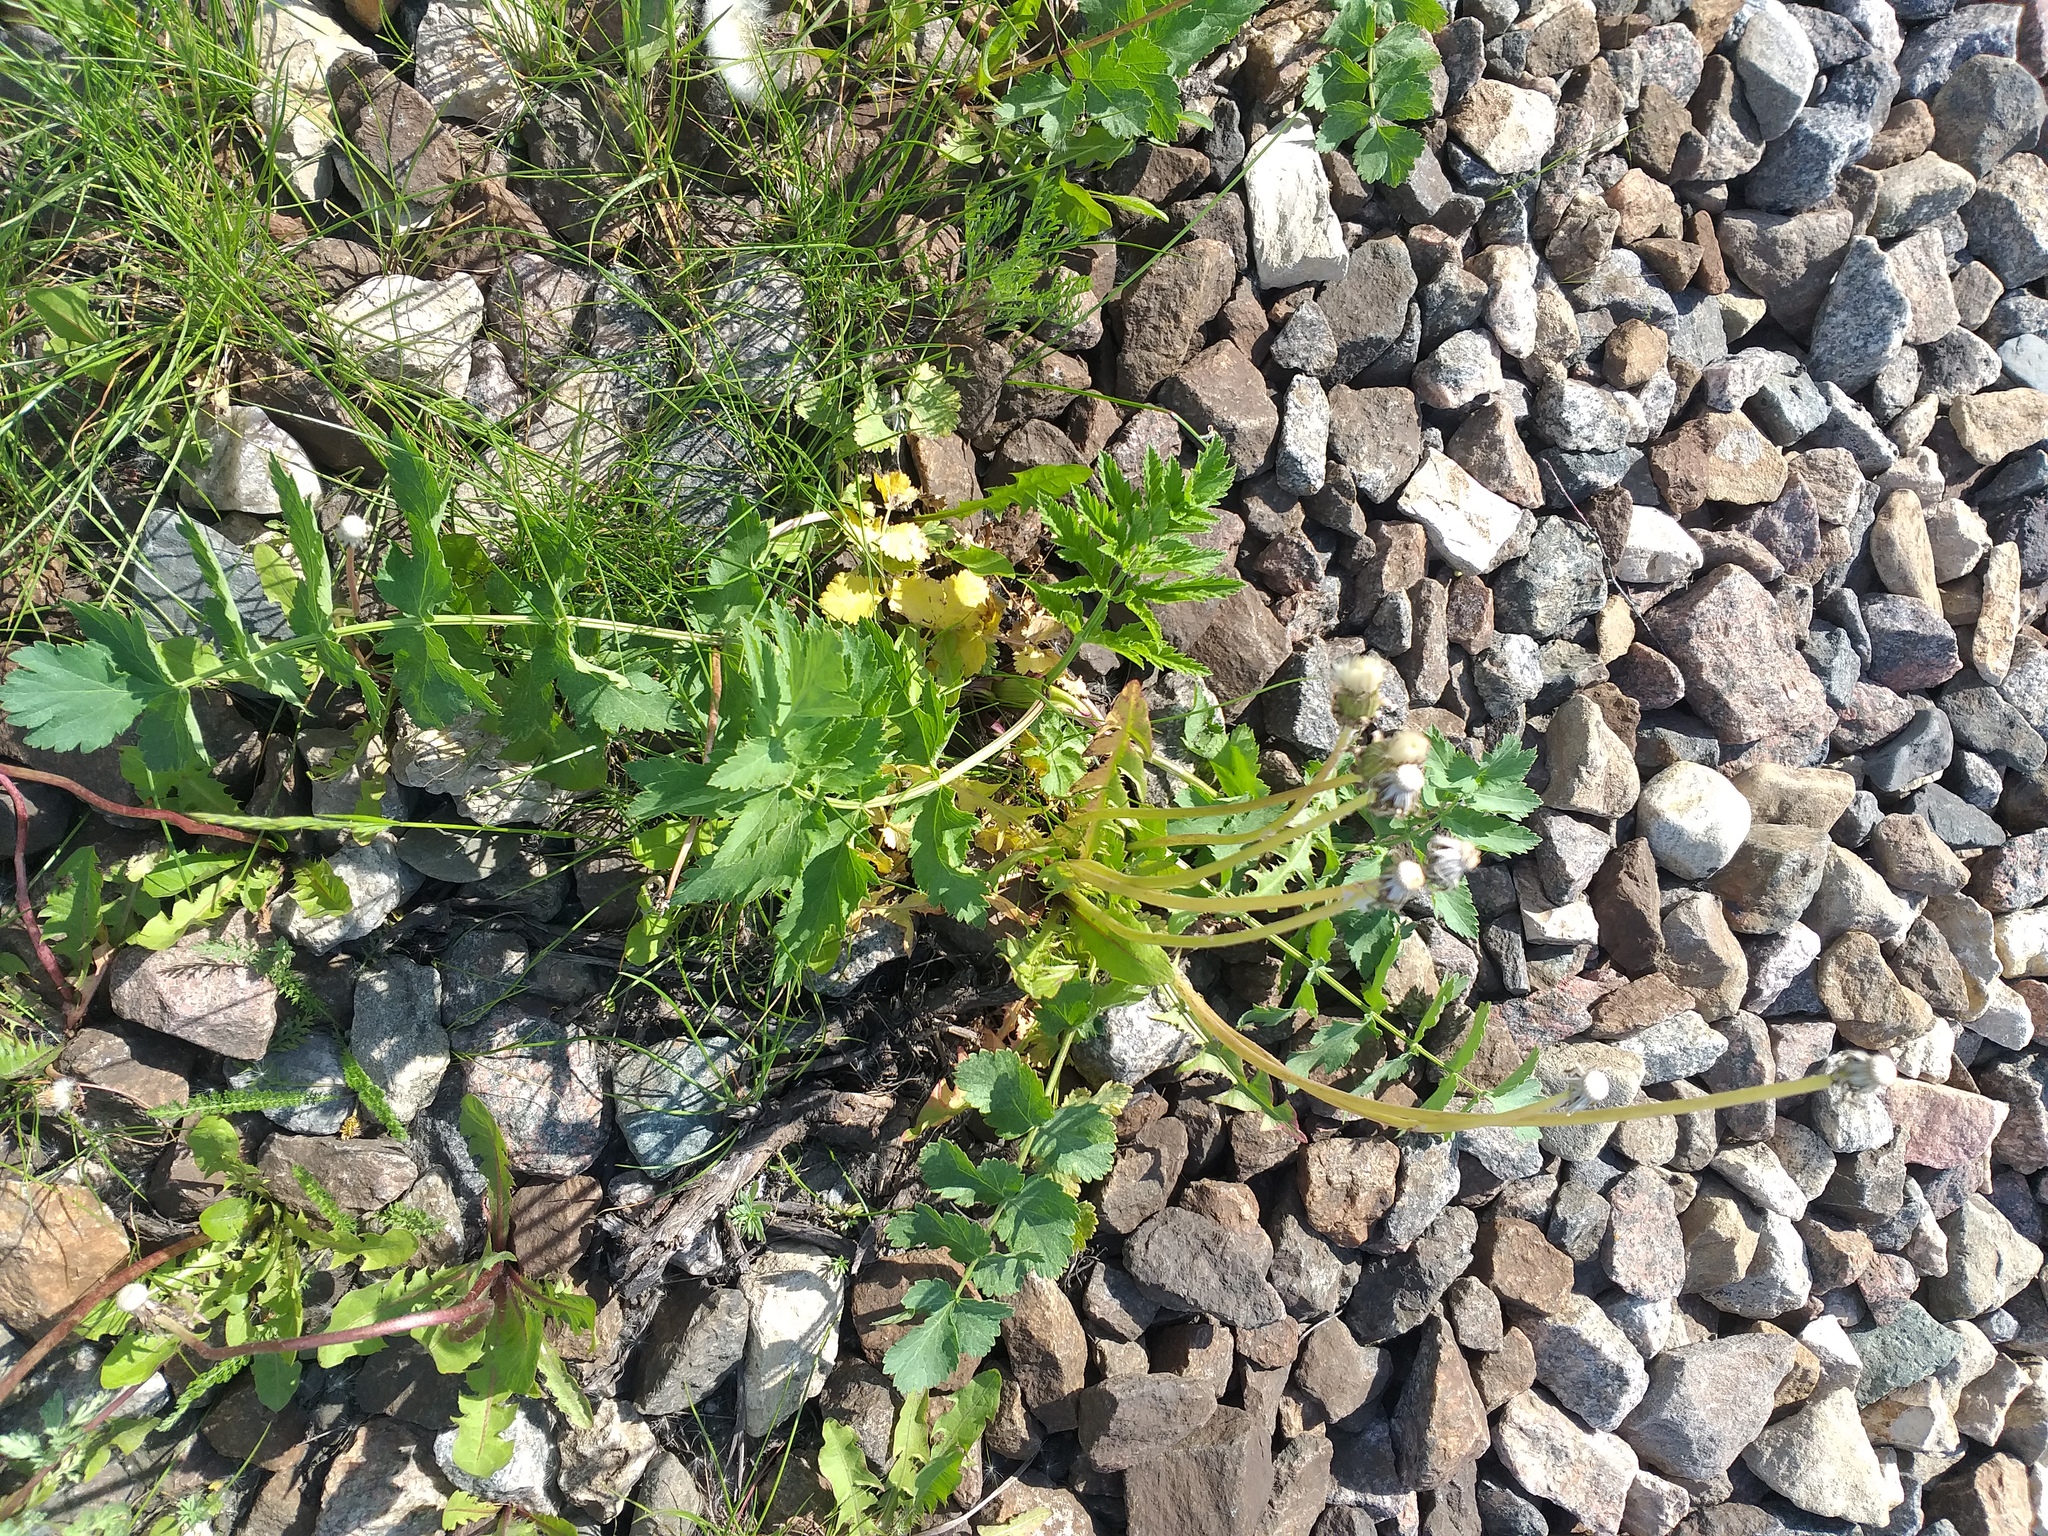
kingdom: Plantae
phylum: Tracheophyta
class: Magnoliopsida
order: Apiales
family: Apiaceae
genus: Pastinaca
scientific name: Pastinaca sativa
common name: Wild parsnip
